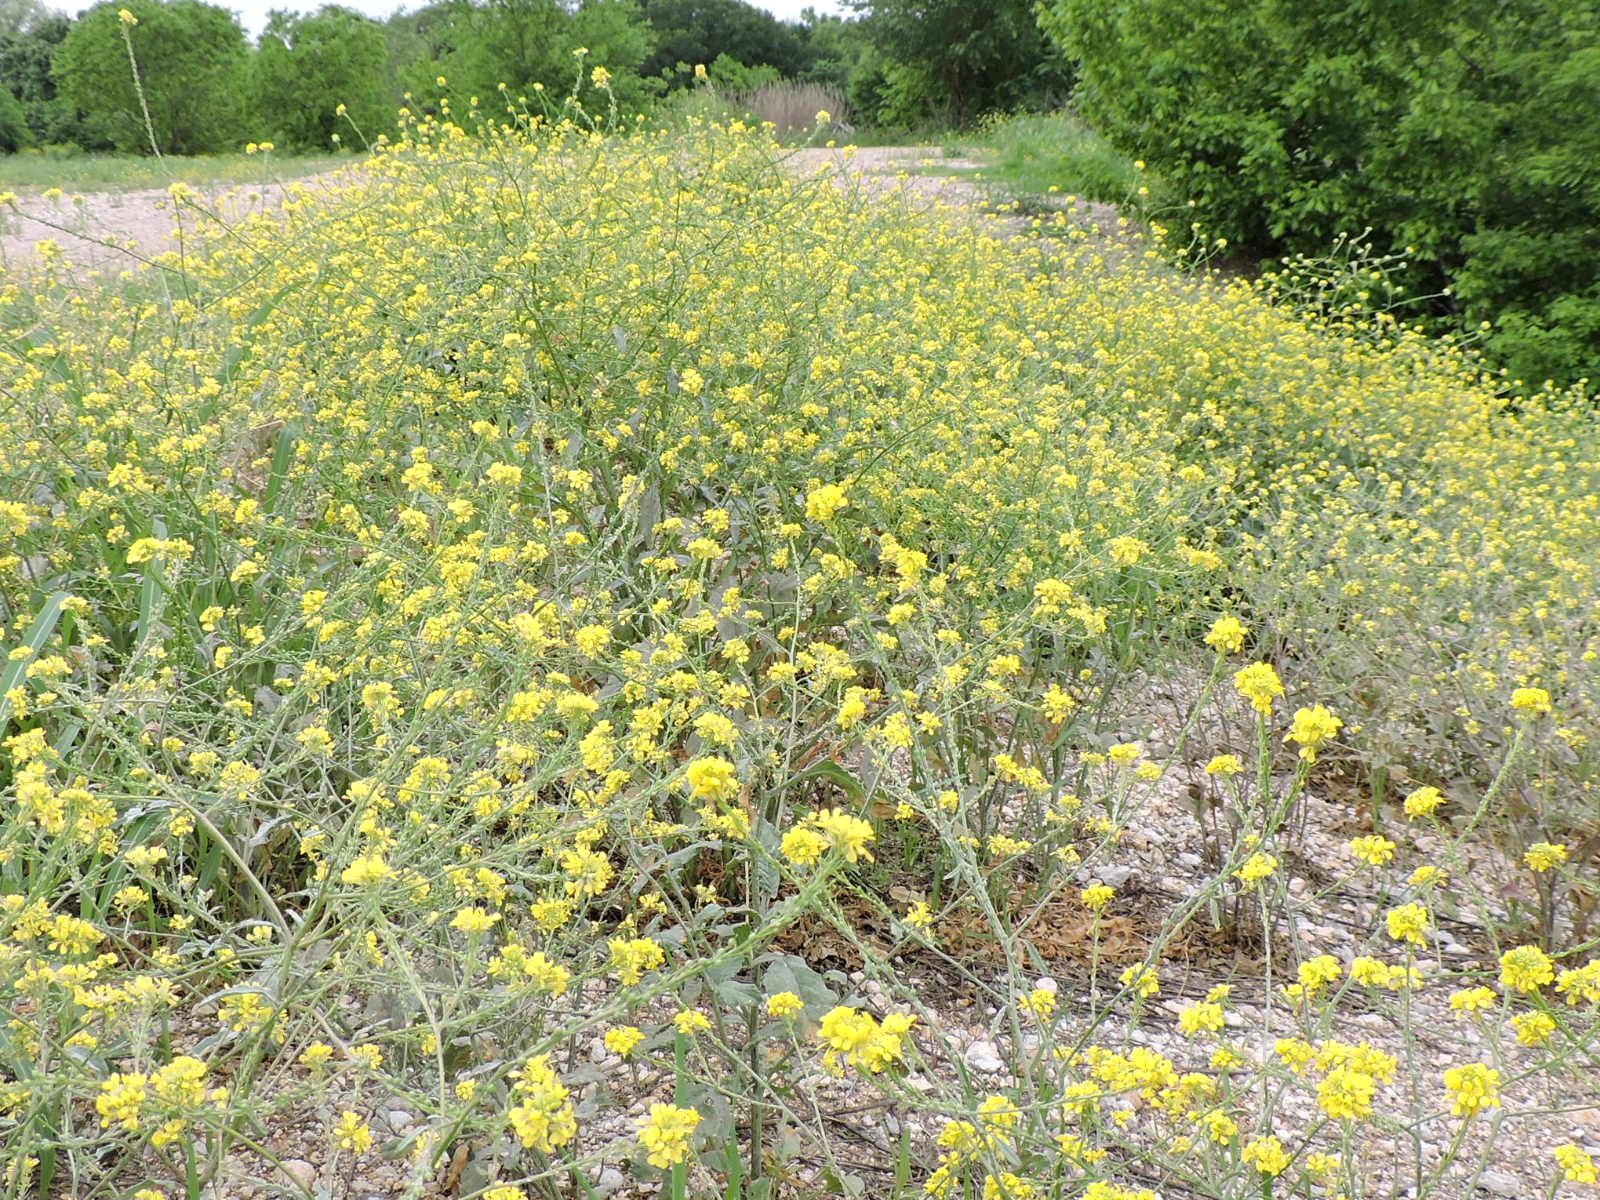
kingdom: Plantae
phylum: Tracheophyta
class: Magnoliopsida
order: Brassicales
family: Brassicaceae
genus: Rapistrum
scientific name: Rapistrum rugosum
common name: Annual bastardcabbage
